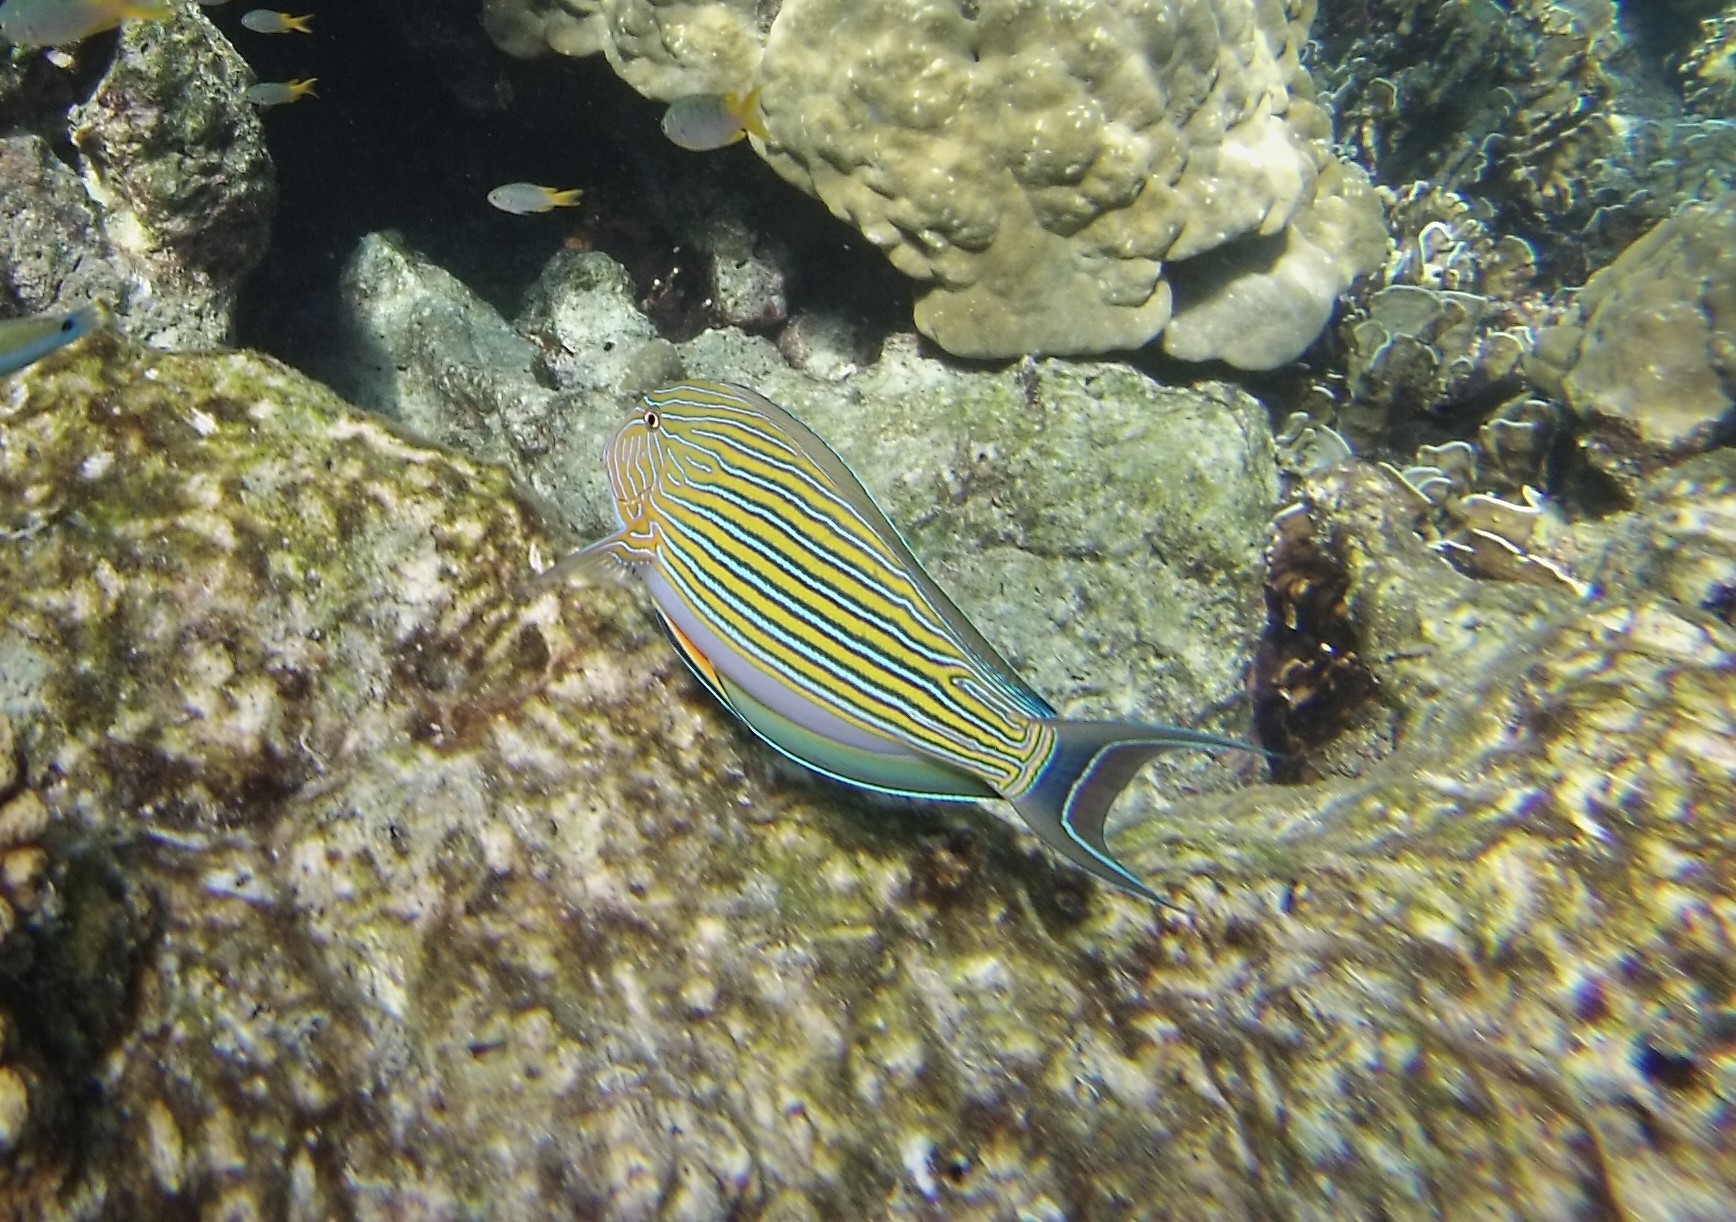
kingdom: Animalia
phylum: Chordata
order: Perciformes
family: Acanthuridae
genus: Acanthurus
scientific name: Acanthurus lineatus
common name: Striped surgeonfish
